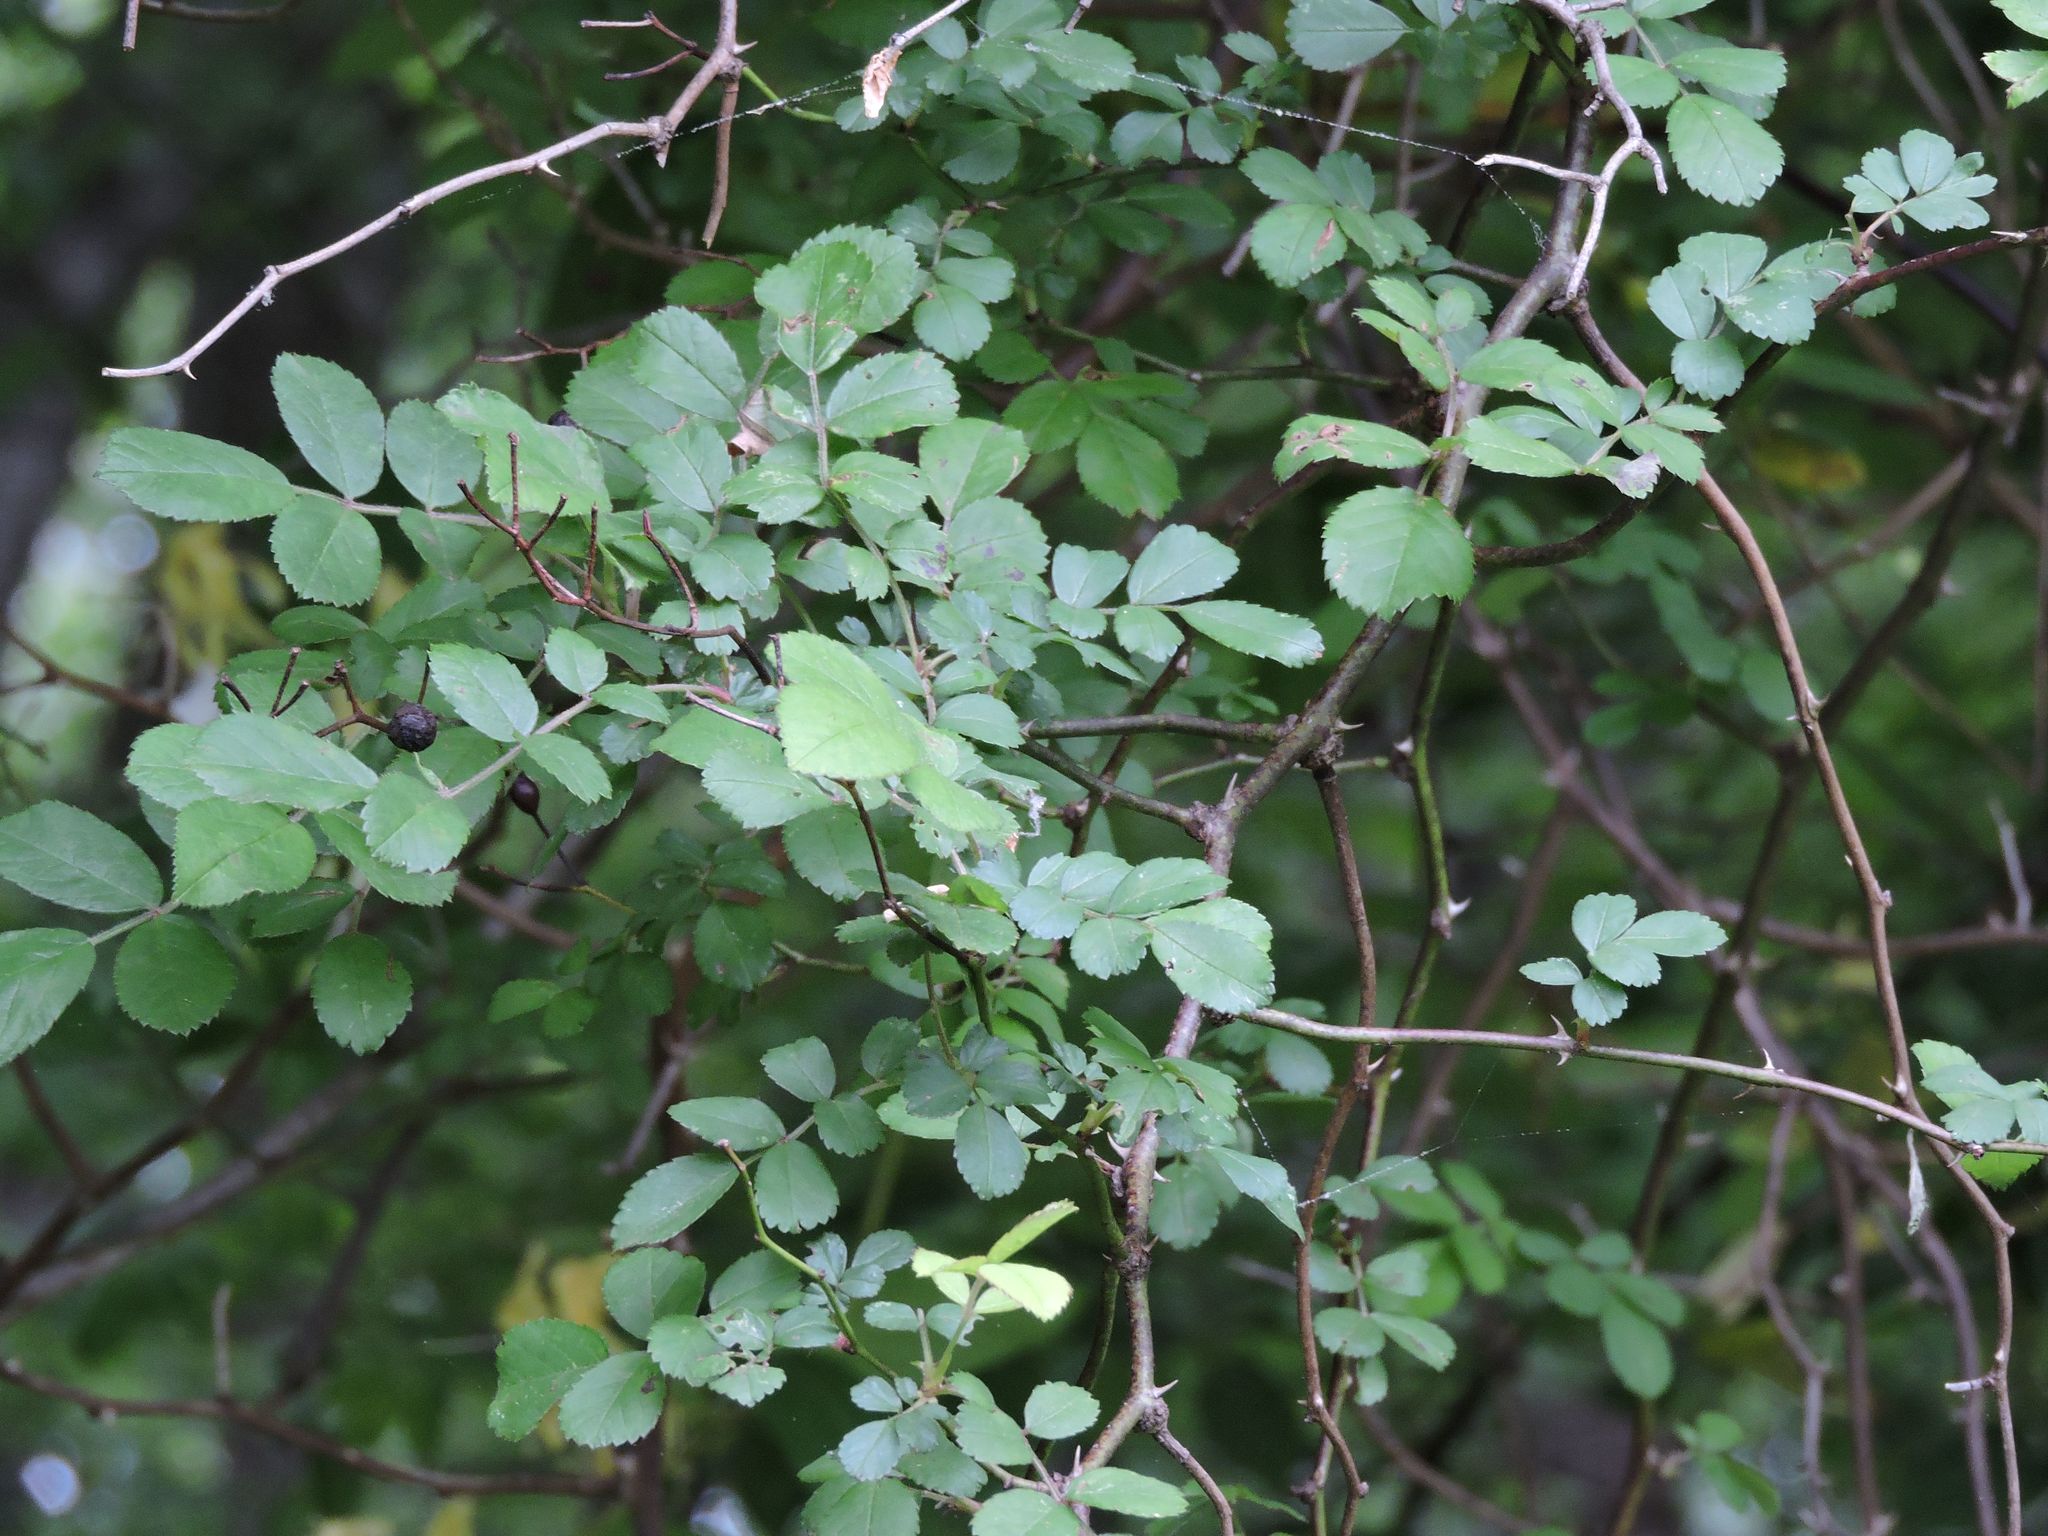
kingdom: Plantae
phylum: Tracheophyta
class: Magnoliopsida
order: Rosales
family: Rosaceae
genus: Rosa
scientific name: Rosa multiflora
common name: Multiflora rose
